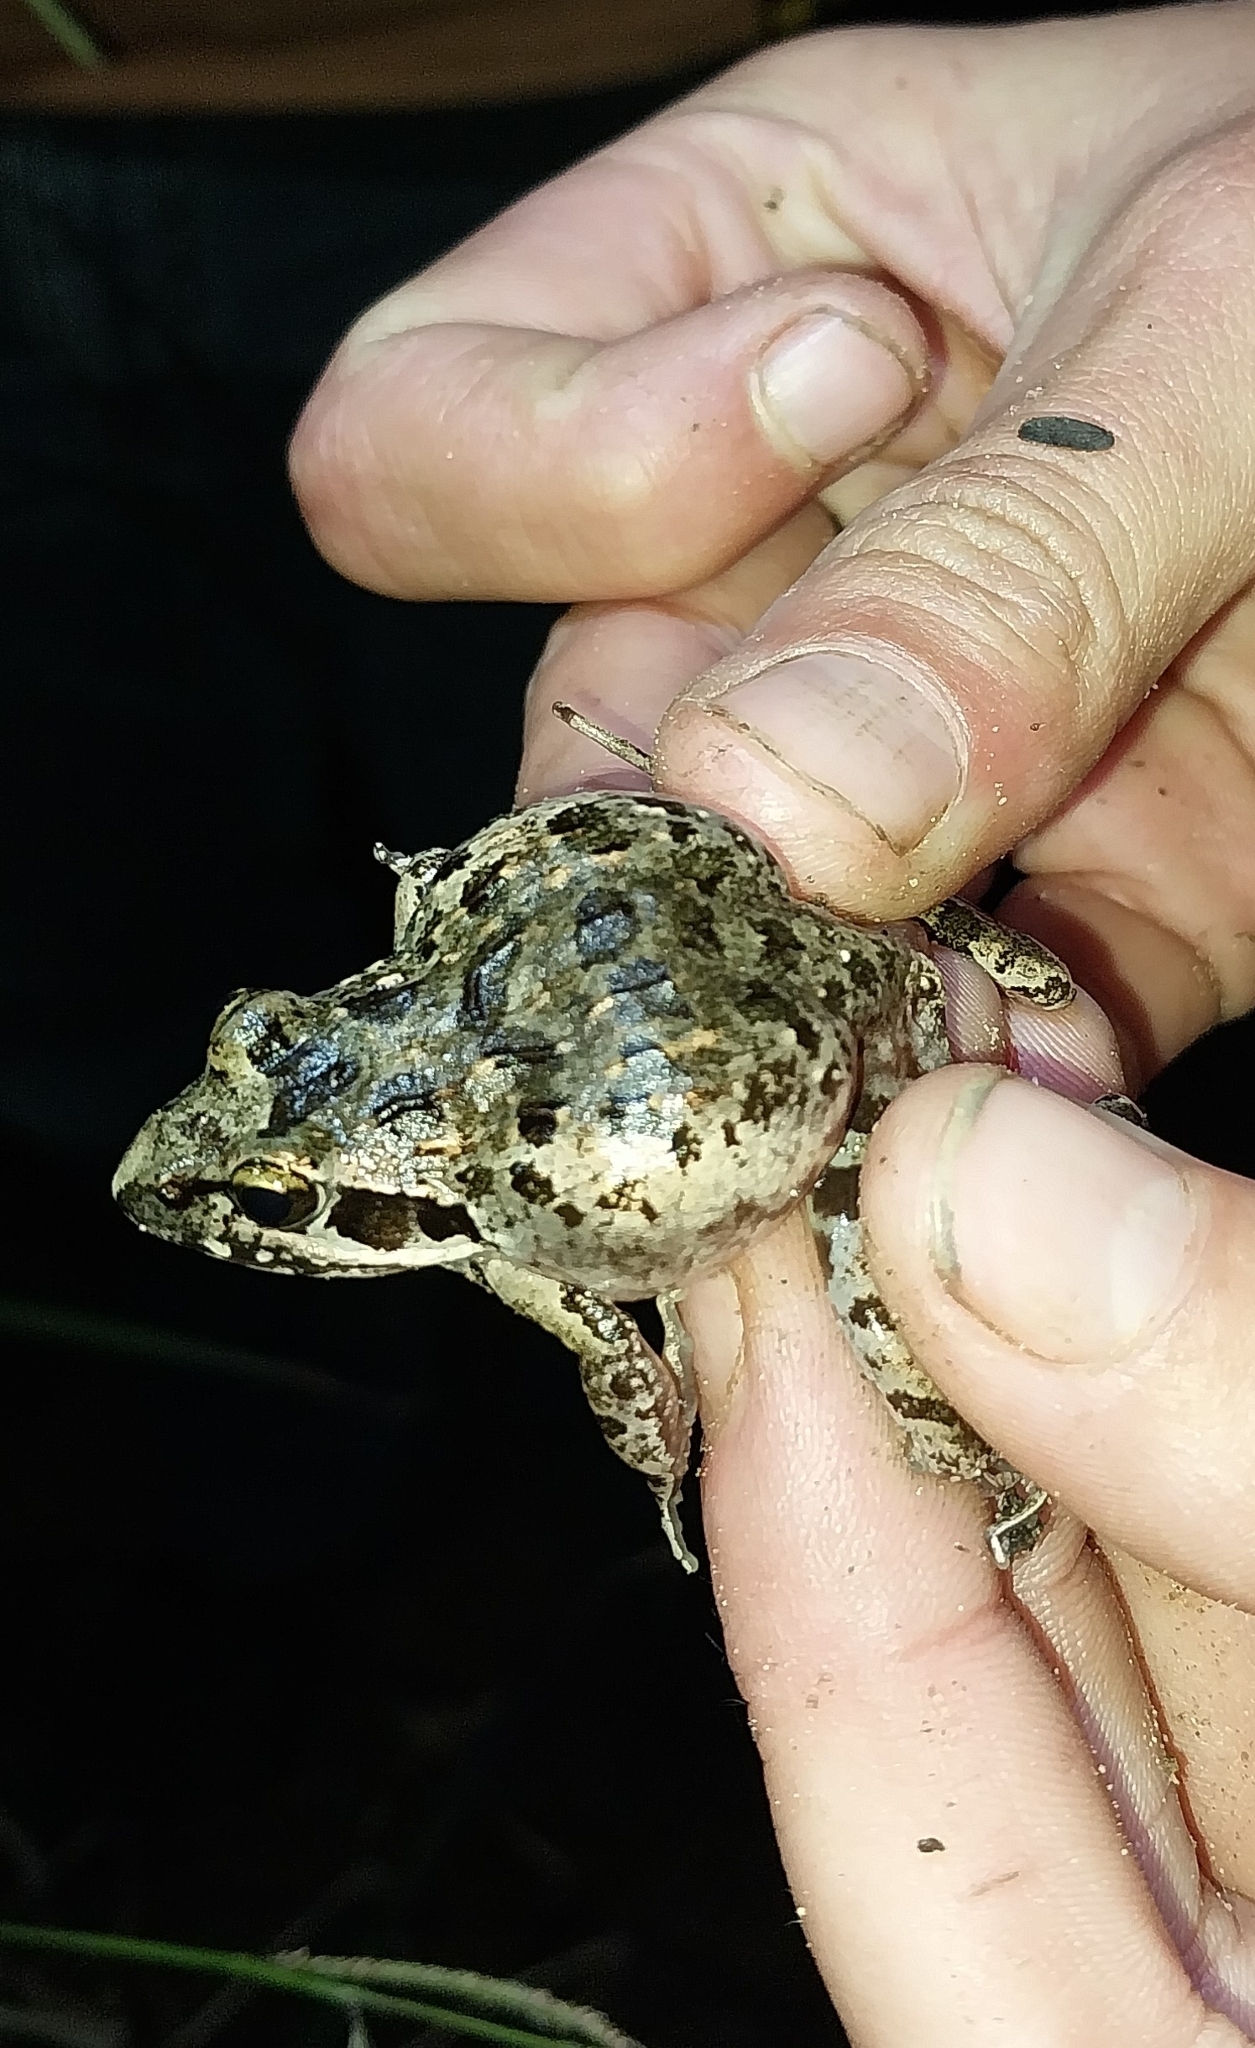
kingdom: Animalia
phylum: Chordata
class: Amphibia
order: Anura
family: Pyxicephalidae
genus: Strongylopus
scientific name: Strongylopus grayii
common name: Gray's stream frog
